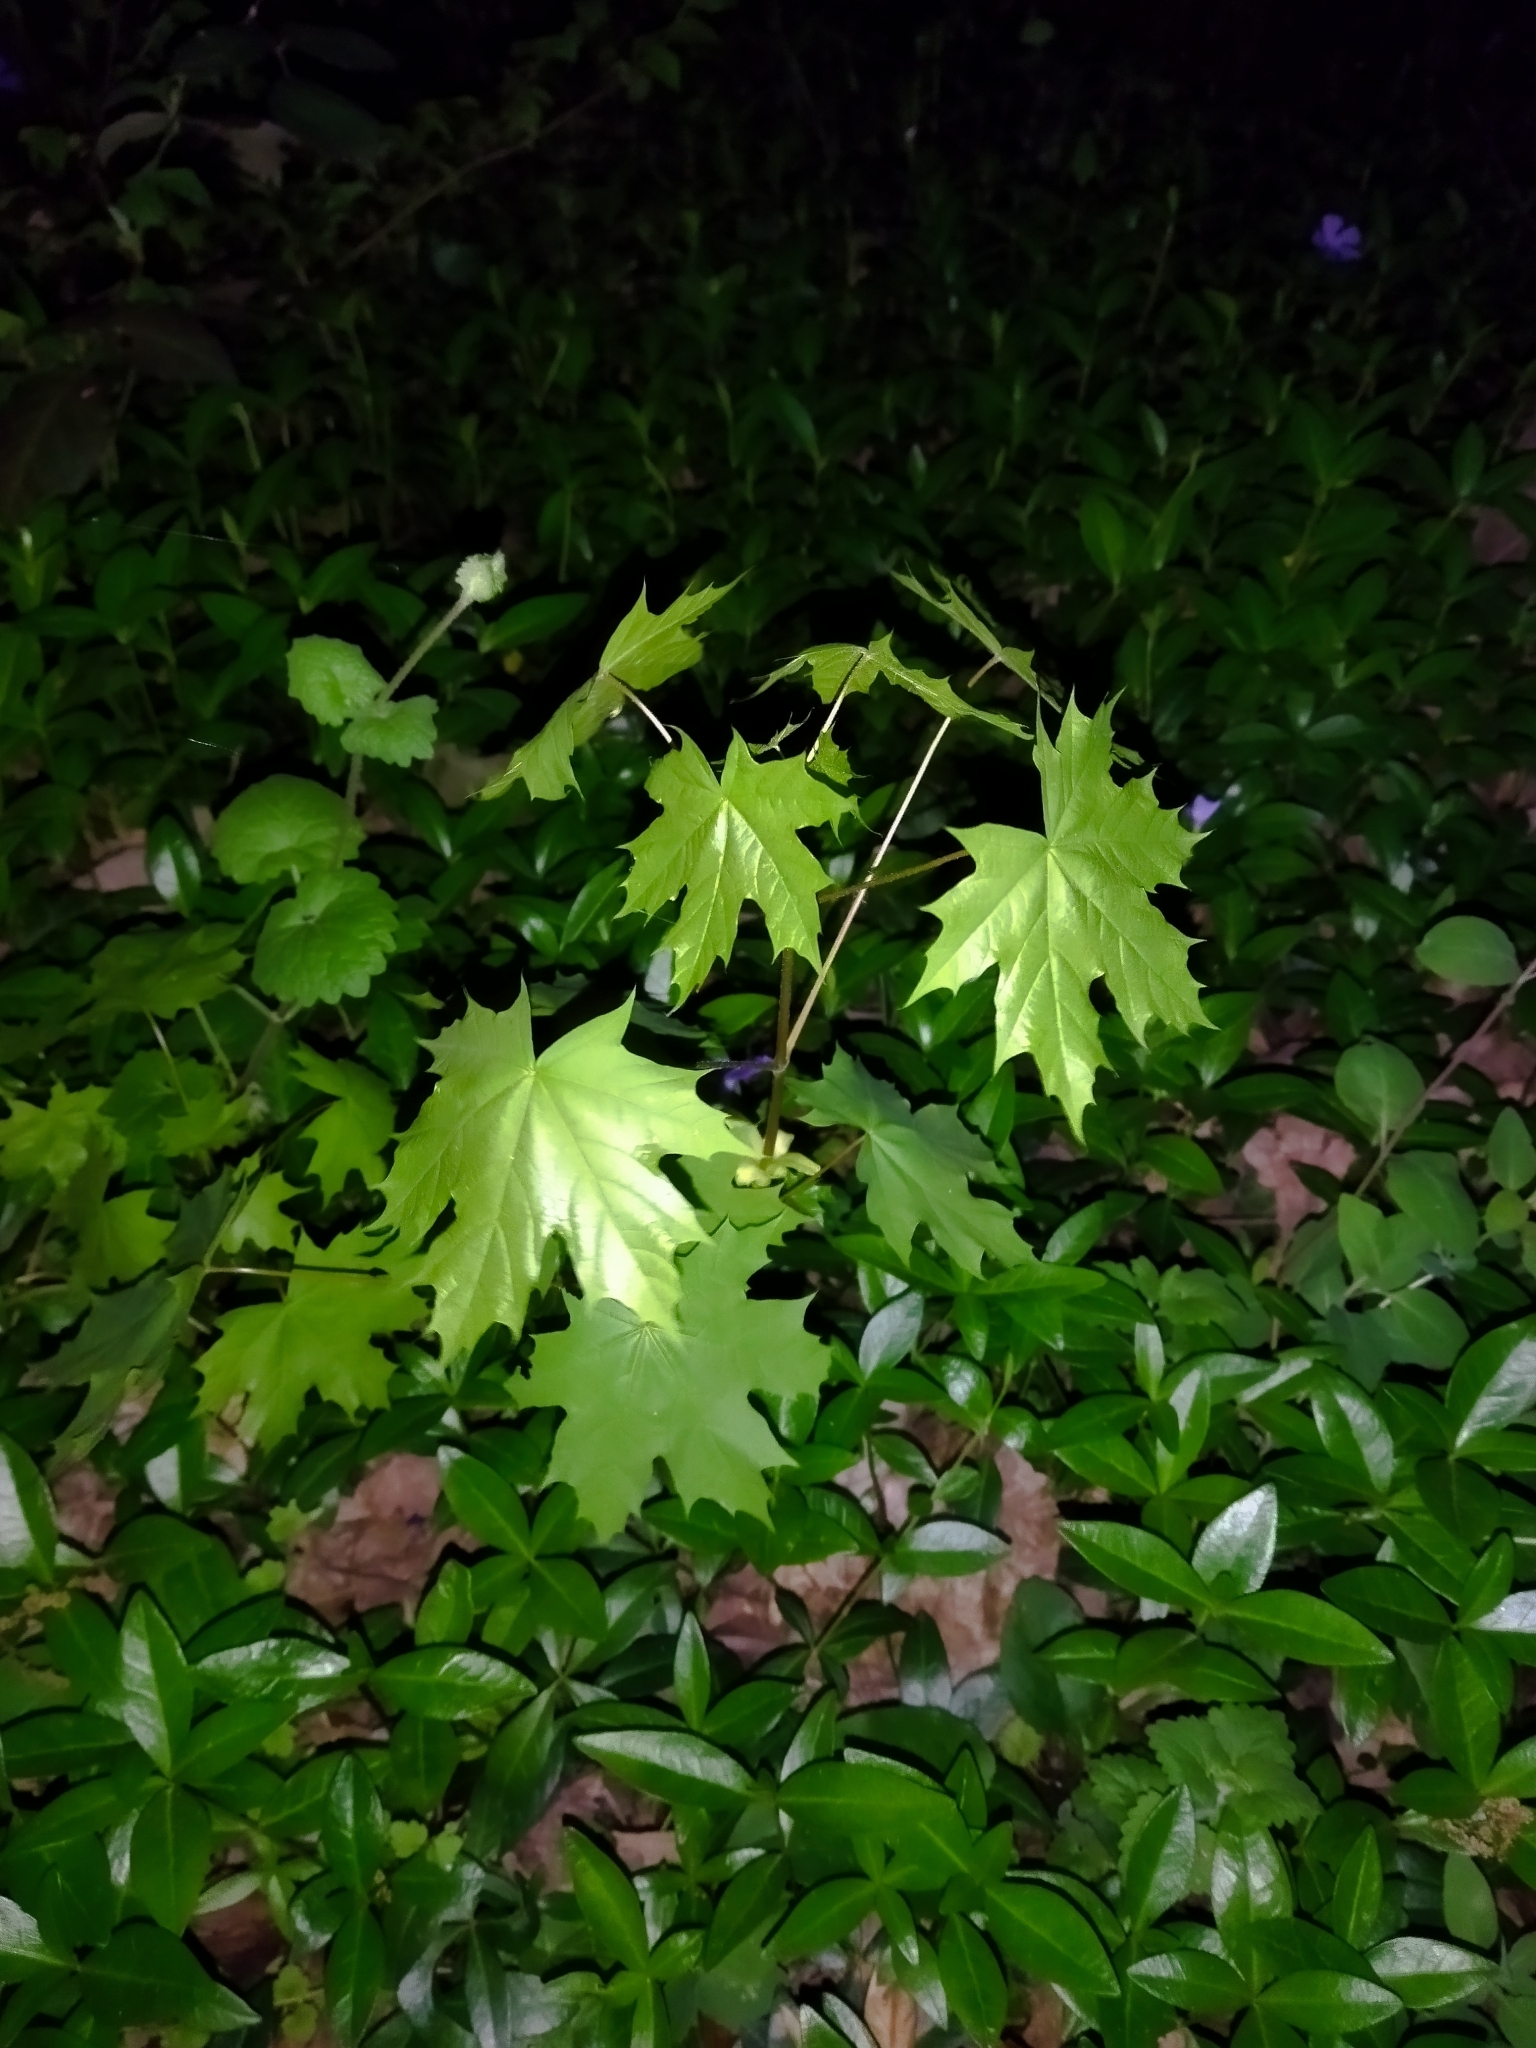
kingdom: Plantae
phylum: Tracheophyta
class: Magnoliopsida
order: Sapindales
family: Sapindaceae
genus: Acer
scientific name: Acer platanoides
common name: Norway maple
